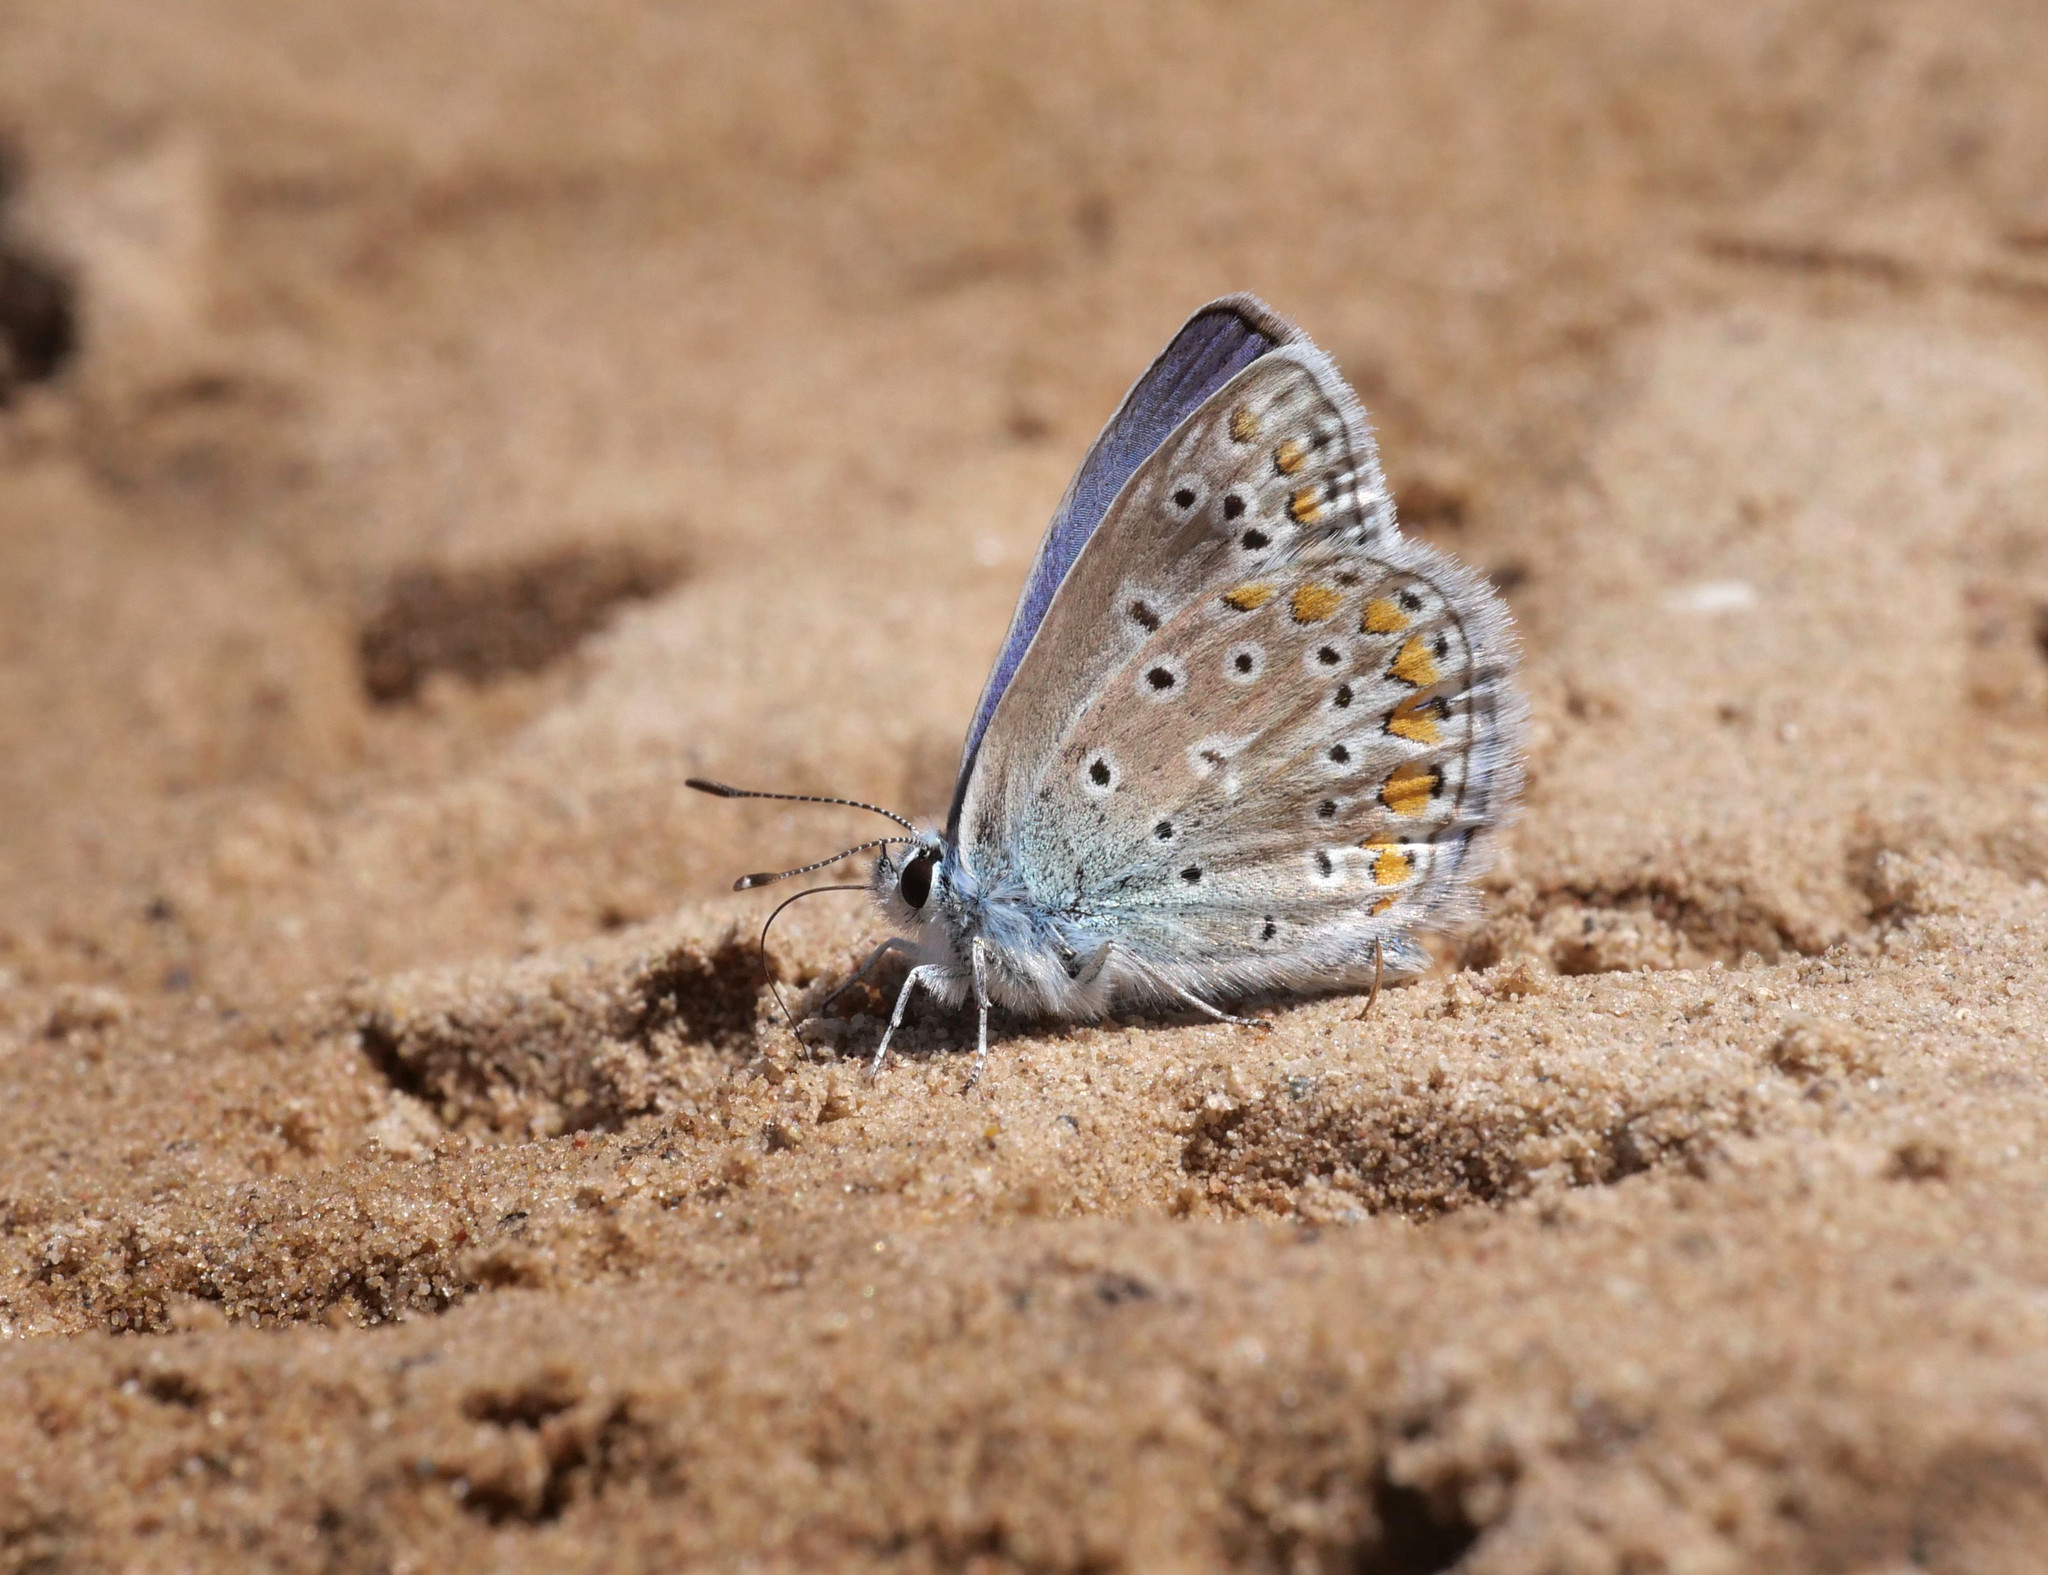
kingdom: Animalia
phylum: Arthropoda
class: Insecta
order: Lepidoptera
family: Lycaenidae
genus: Polyommatus
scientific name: Polyommatus icarus
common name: Common blue
